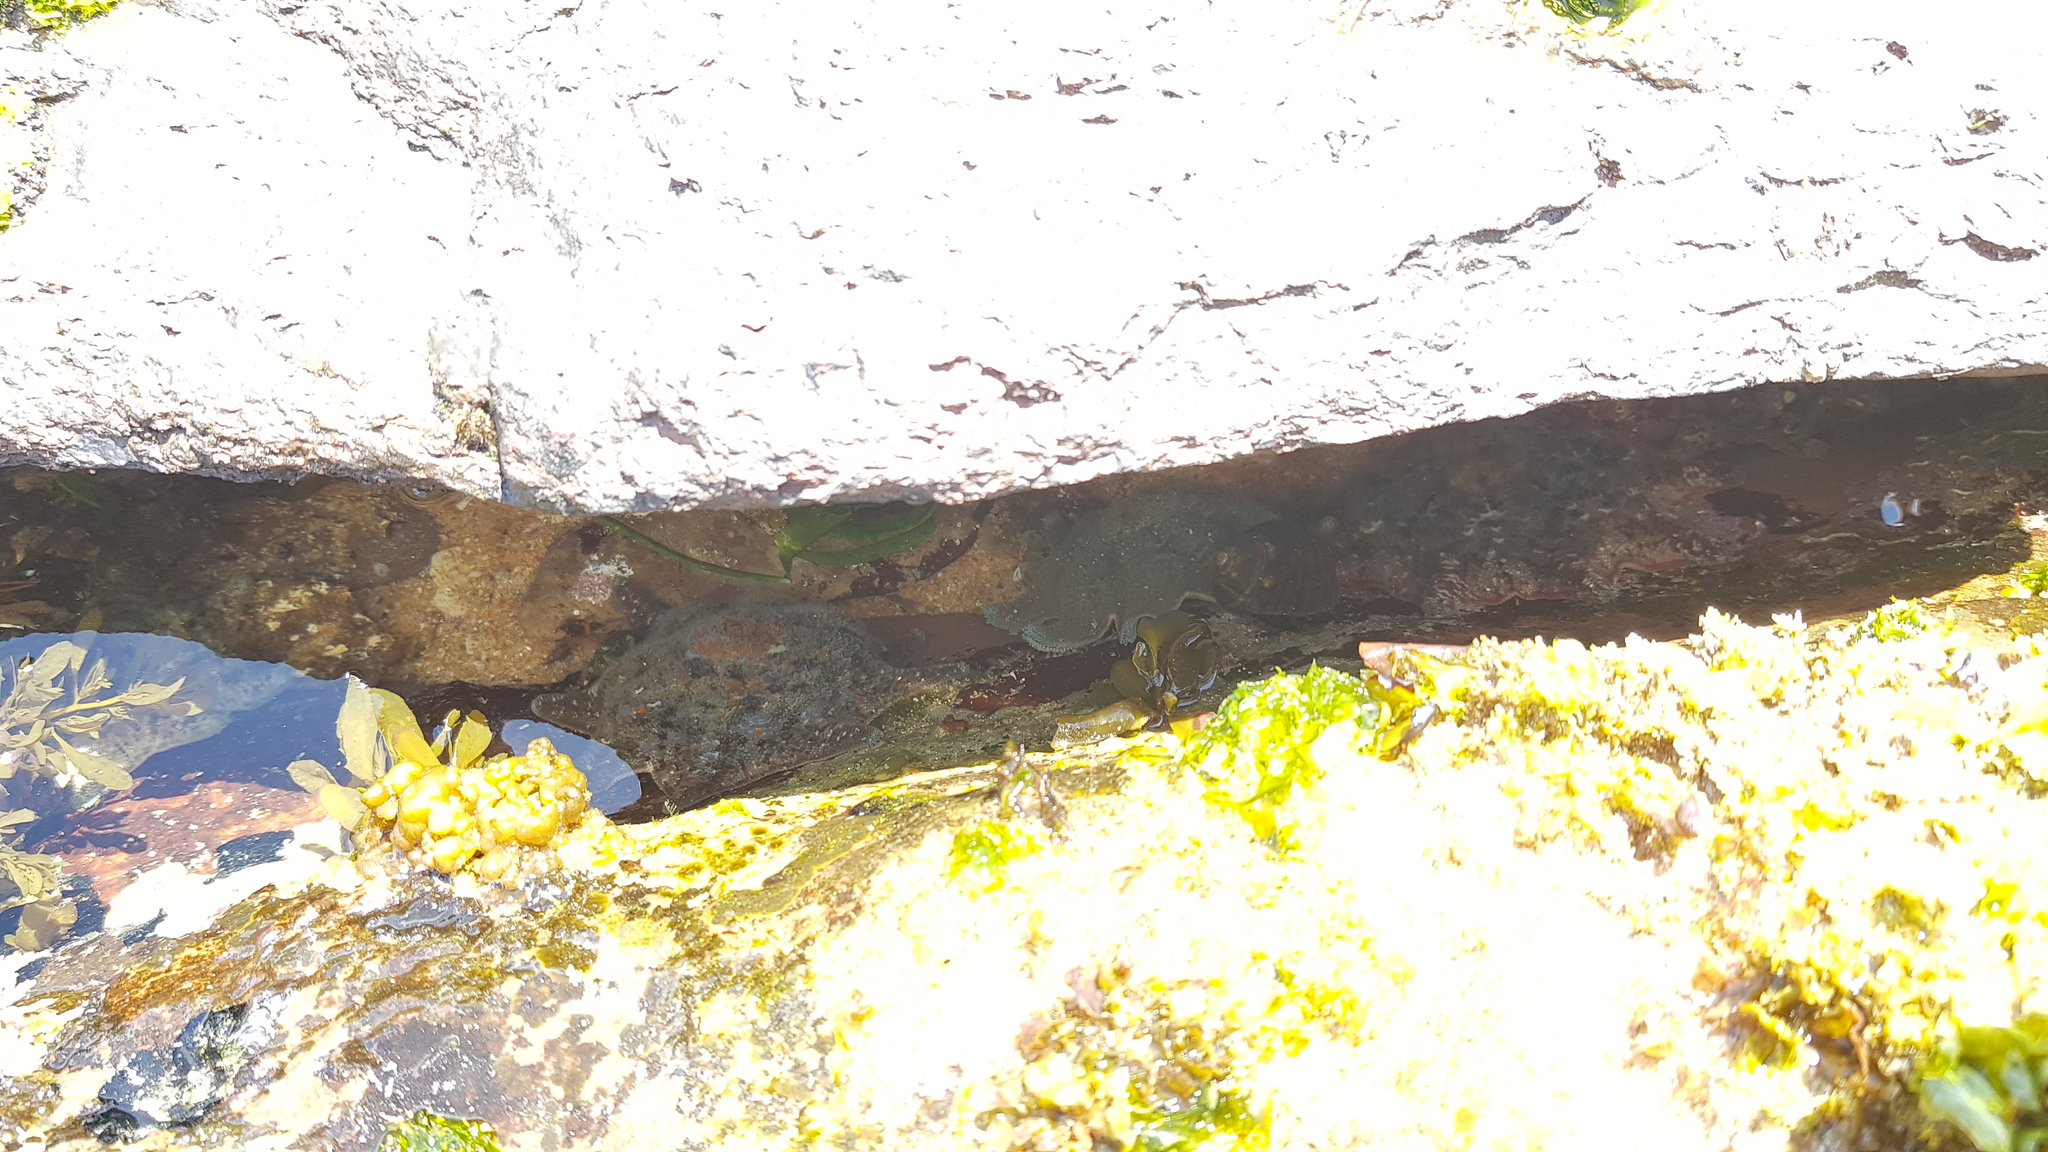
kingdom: Animalia
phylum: Echinodermata
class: Asteroidea
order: Valvatida
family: Asterinidae
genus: Meridiastra
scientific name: Meridiastra calcar
